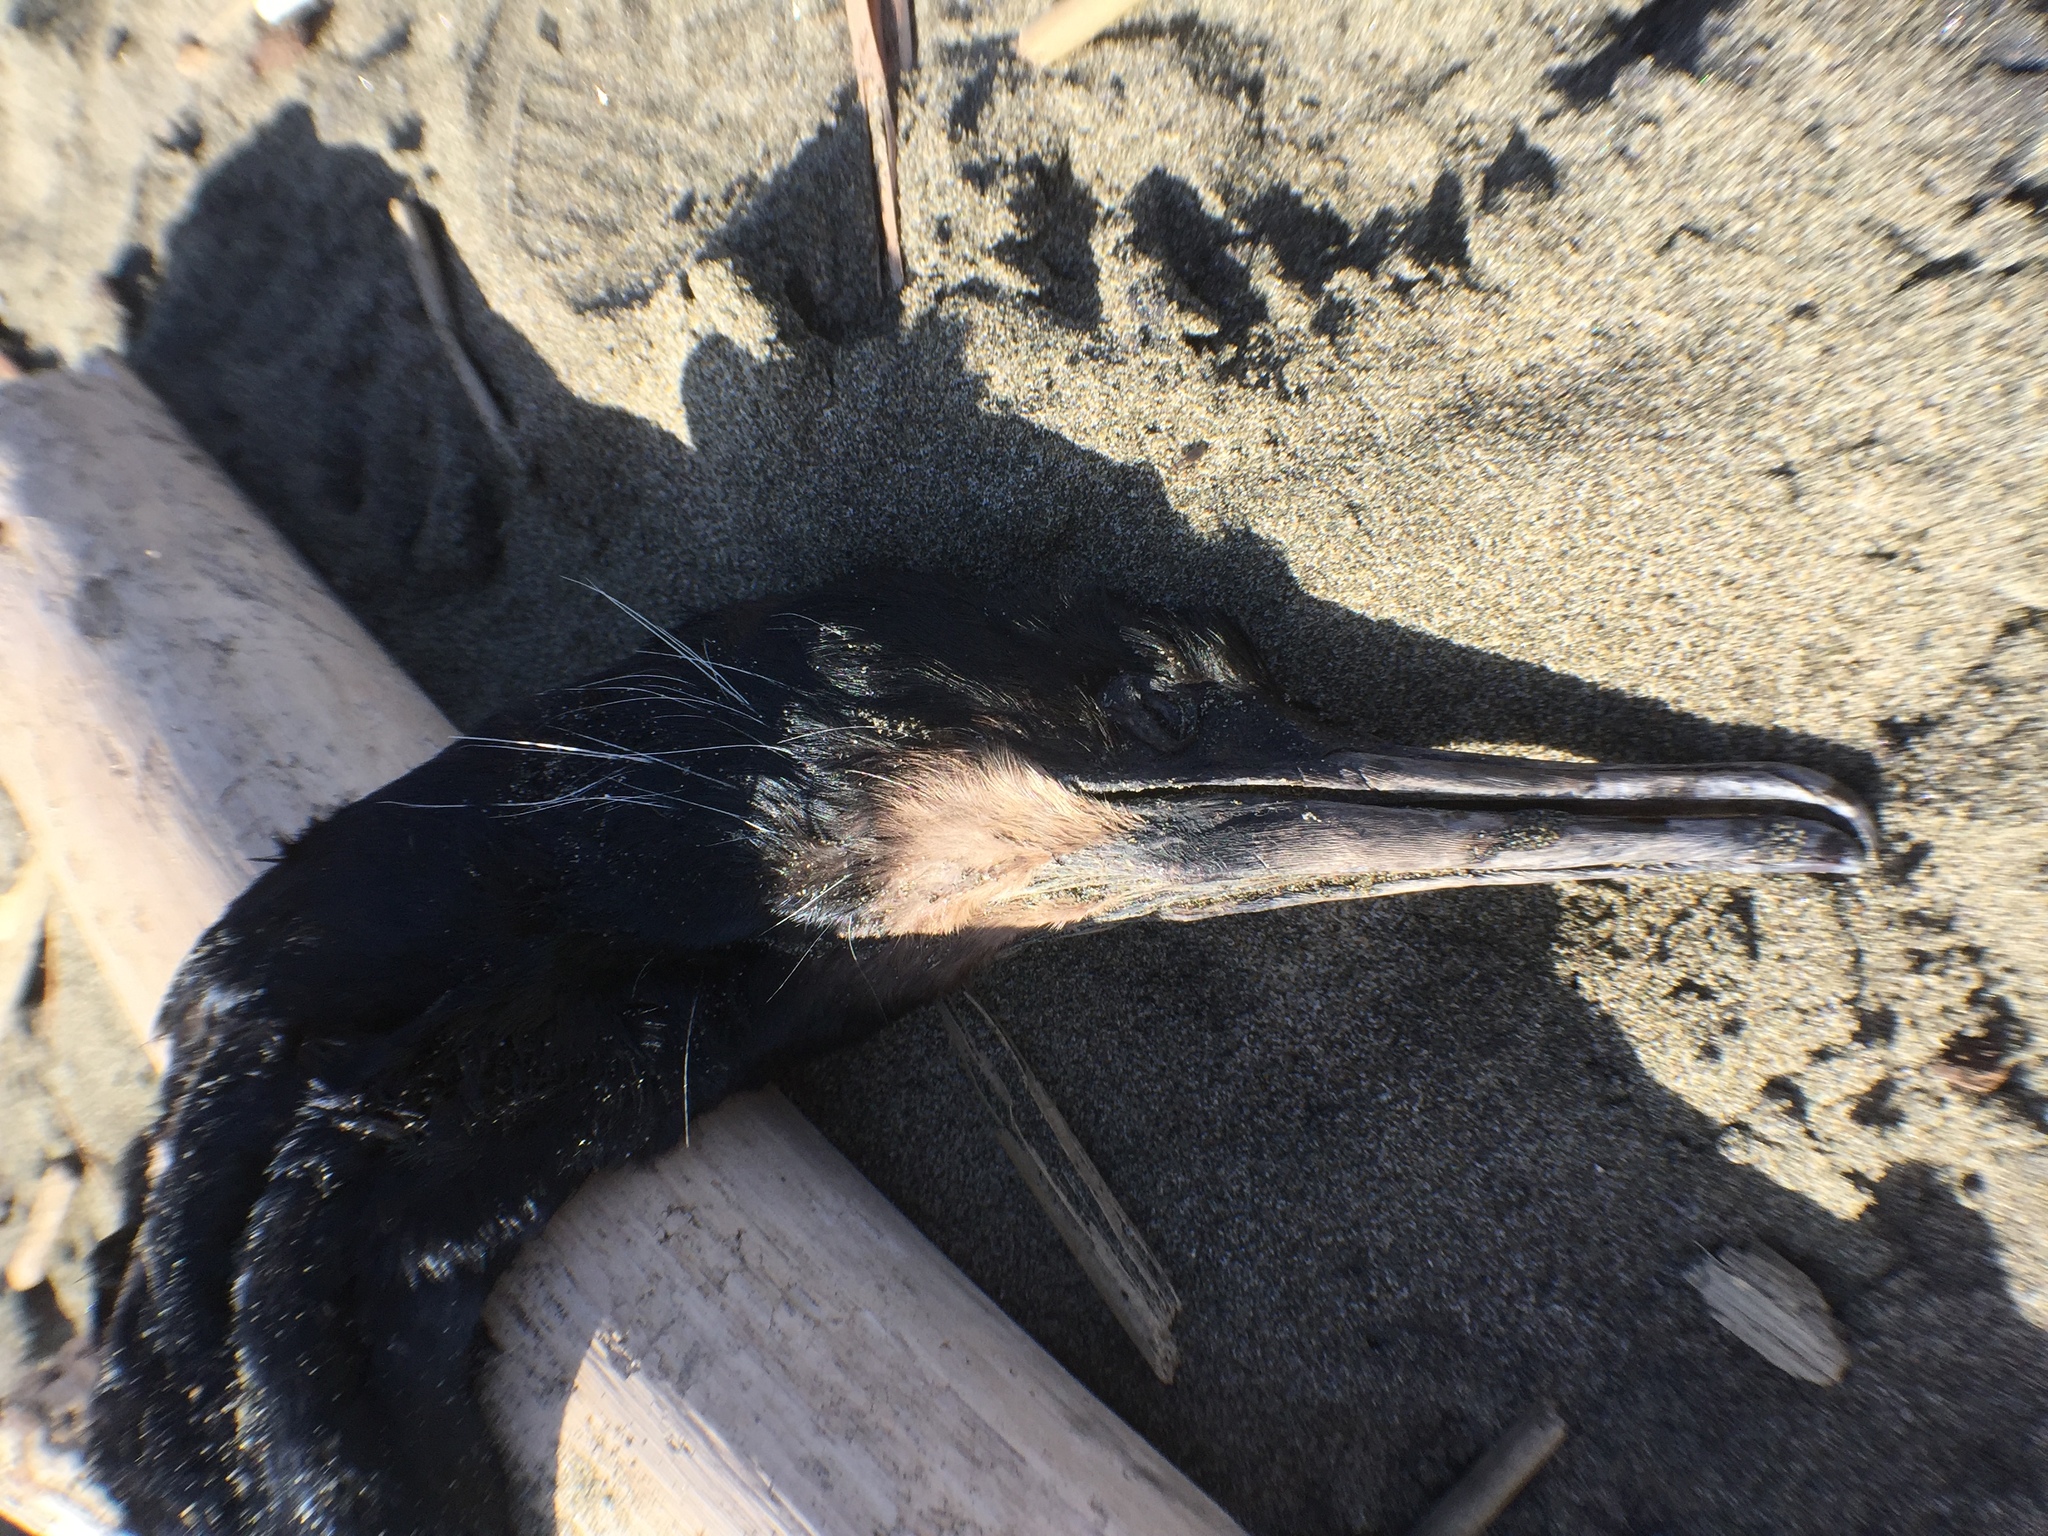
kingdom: Animalia
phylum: Chordata
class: Aves
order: Suliformes
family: Phalacrocoracidae
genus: Urile
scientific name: Urile penicillatus
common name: Brandt's cormorant
